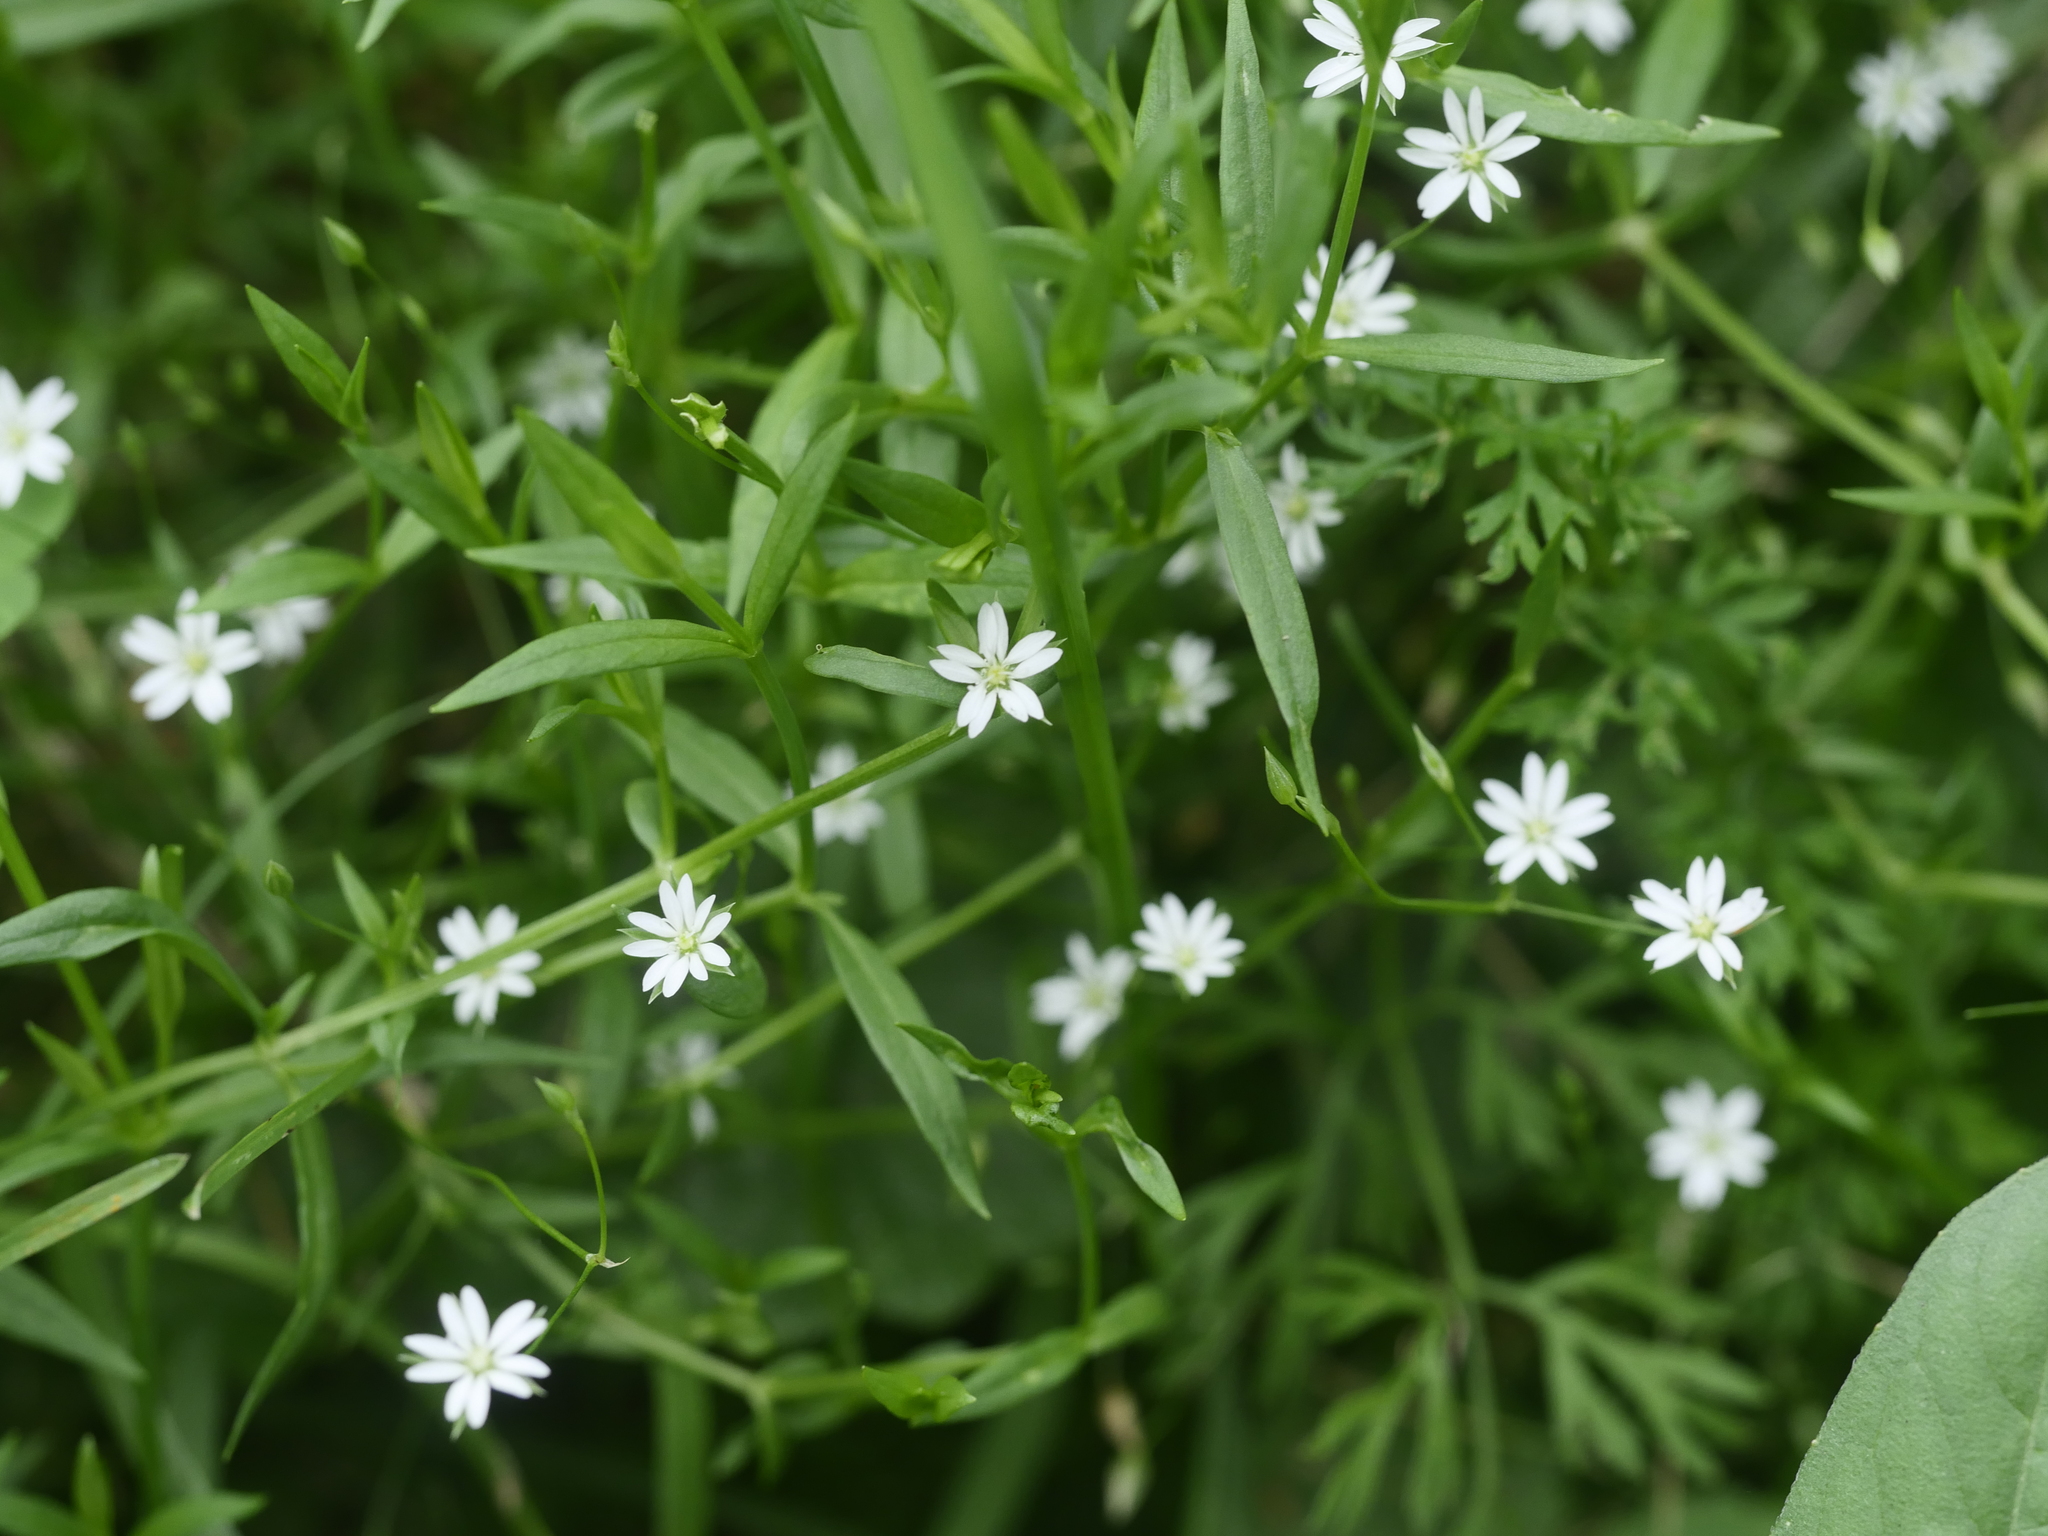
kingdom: Plantae
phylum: Tracheophyta
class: Magnoliopsida
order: Caryophyllales
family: Caryophyllaceae
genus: Stellaria
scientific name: Stellaria graminea
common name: Grass-like starwort
